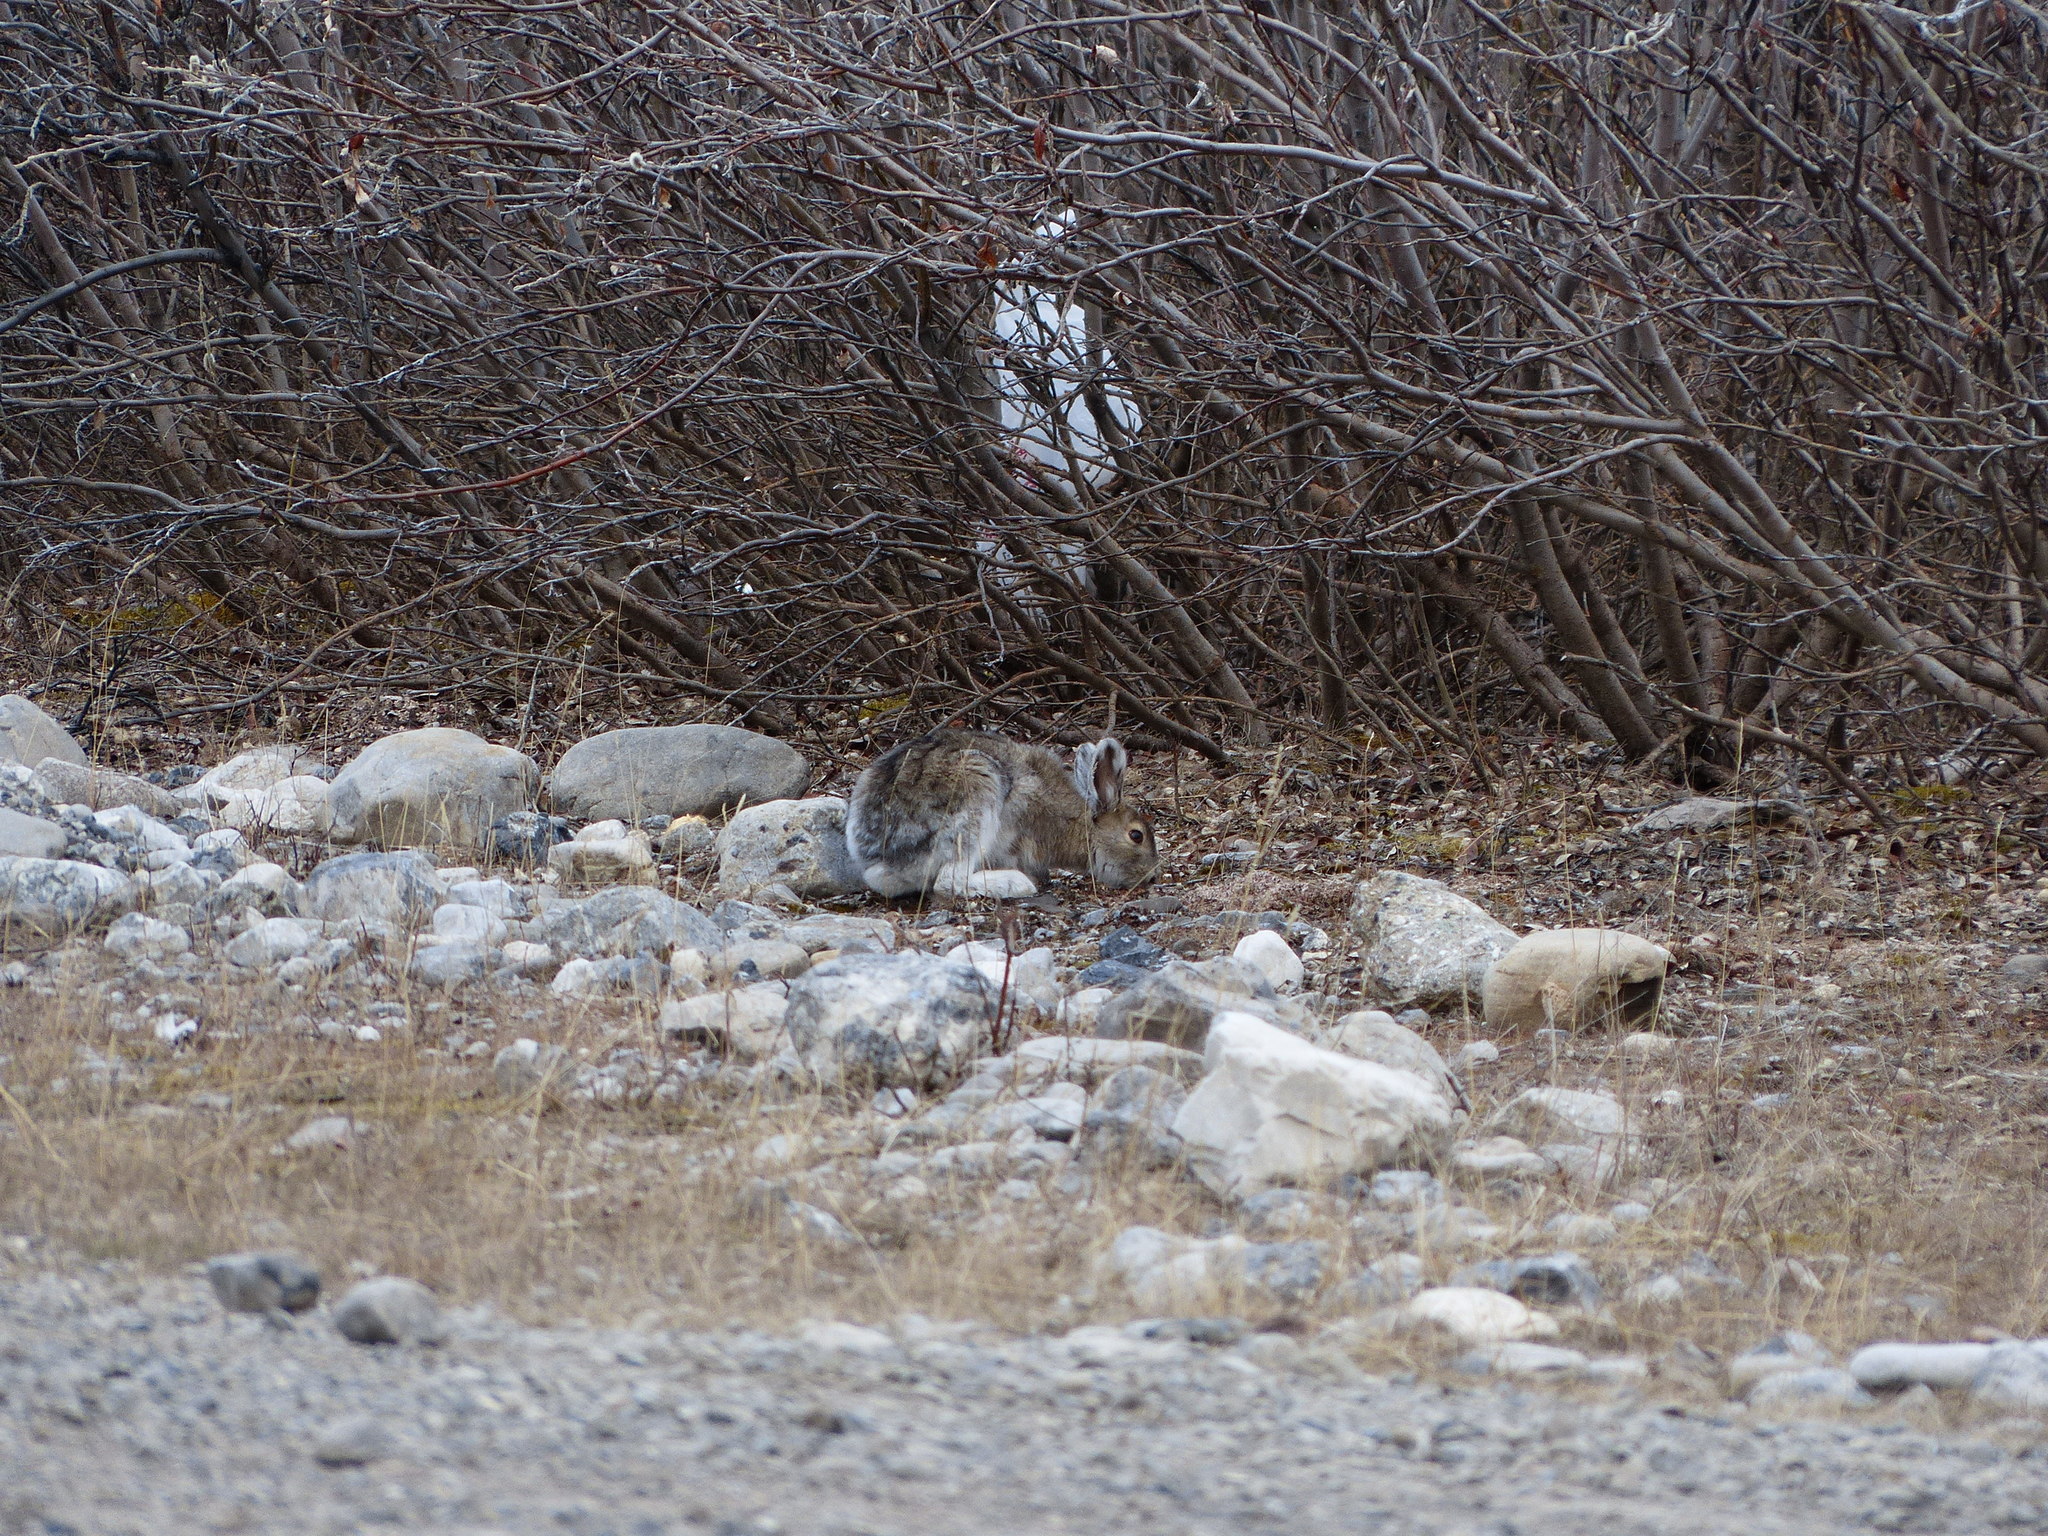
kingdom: Animalia
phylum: Chordata
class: Mammalia
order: Lagomorpha
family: Leporidae
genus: Lepus
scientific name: Lepus americanus
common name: Snowshoe hare
